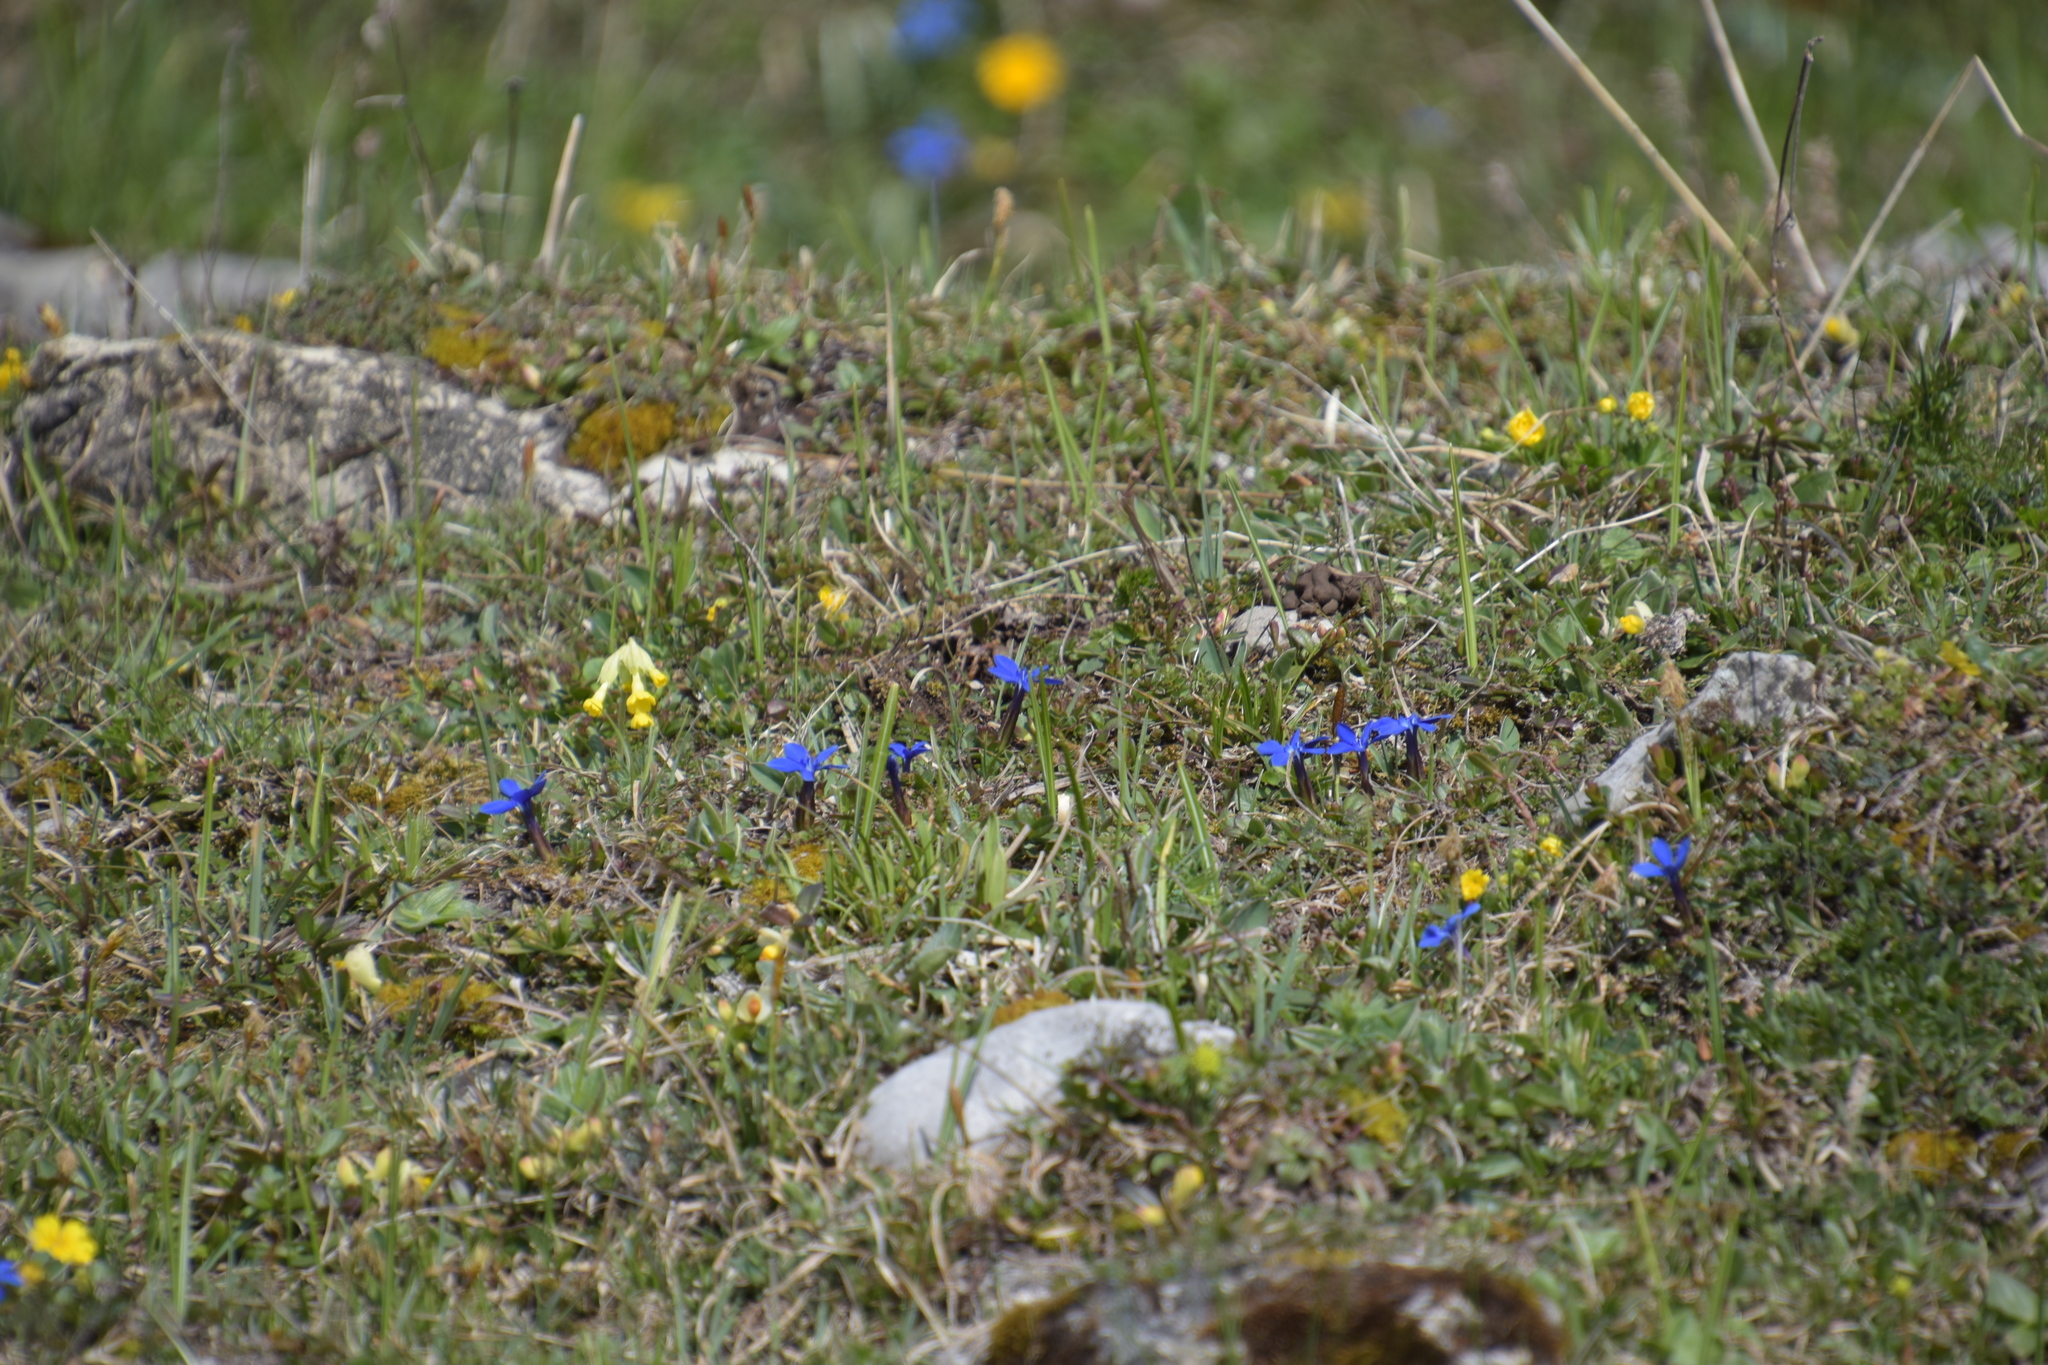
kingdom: Plantae
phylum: Tracheophyta
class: Magnoliopsida
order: Gentianales
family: Gentianaceae
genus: Gentiana
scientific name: Gentiana verna
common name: Spring gentian
